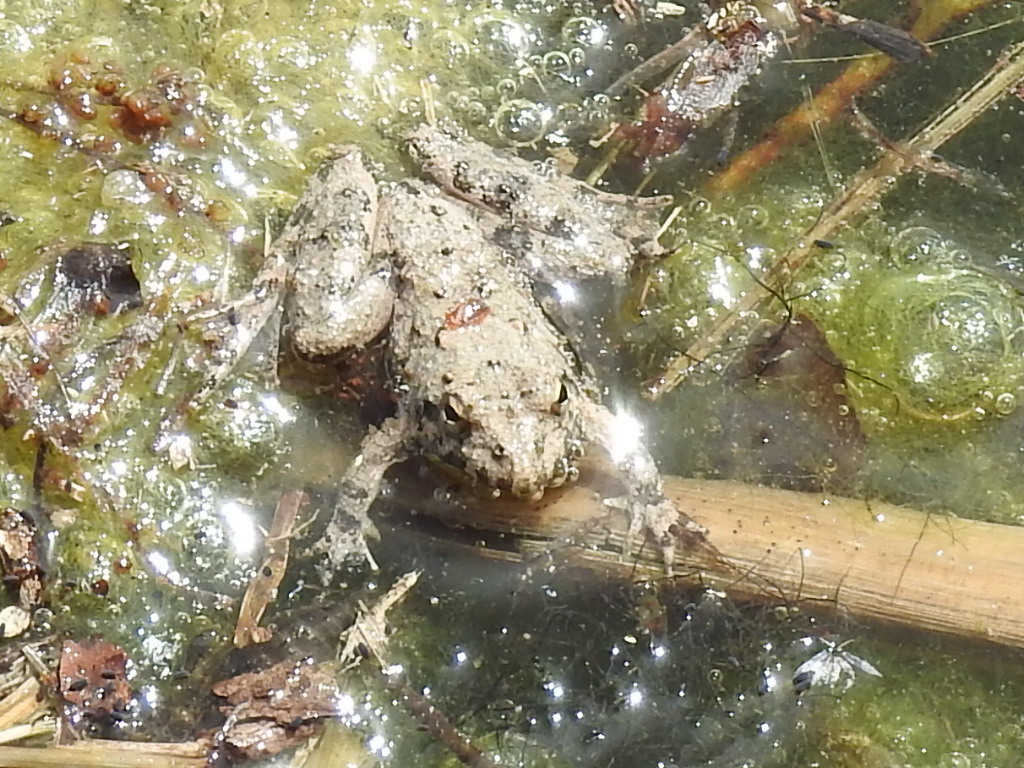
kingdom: Animalia
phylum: Chordata
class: Amphibia
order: Anura
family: Hylidae
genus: Acris
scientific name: Acris blanchardi
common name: Blanchard's cricket frog
